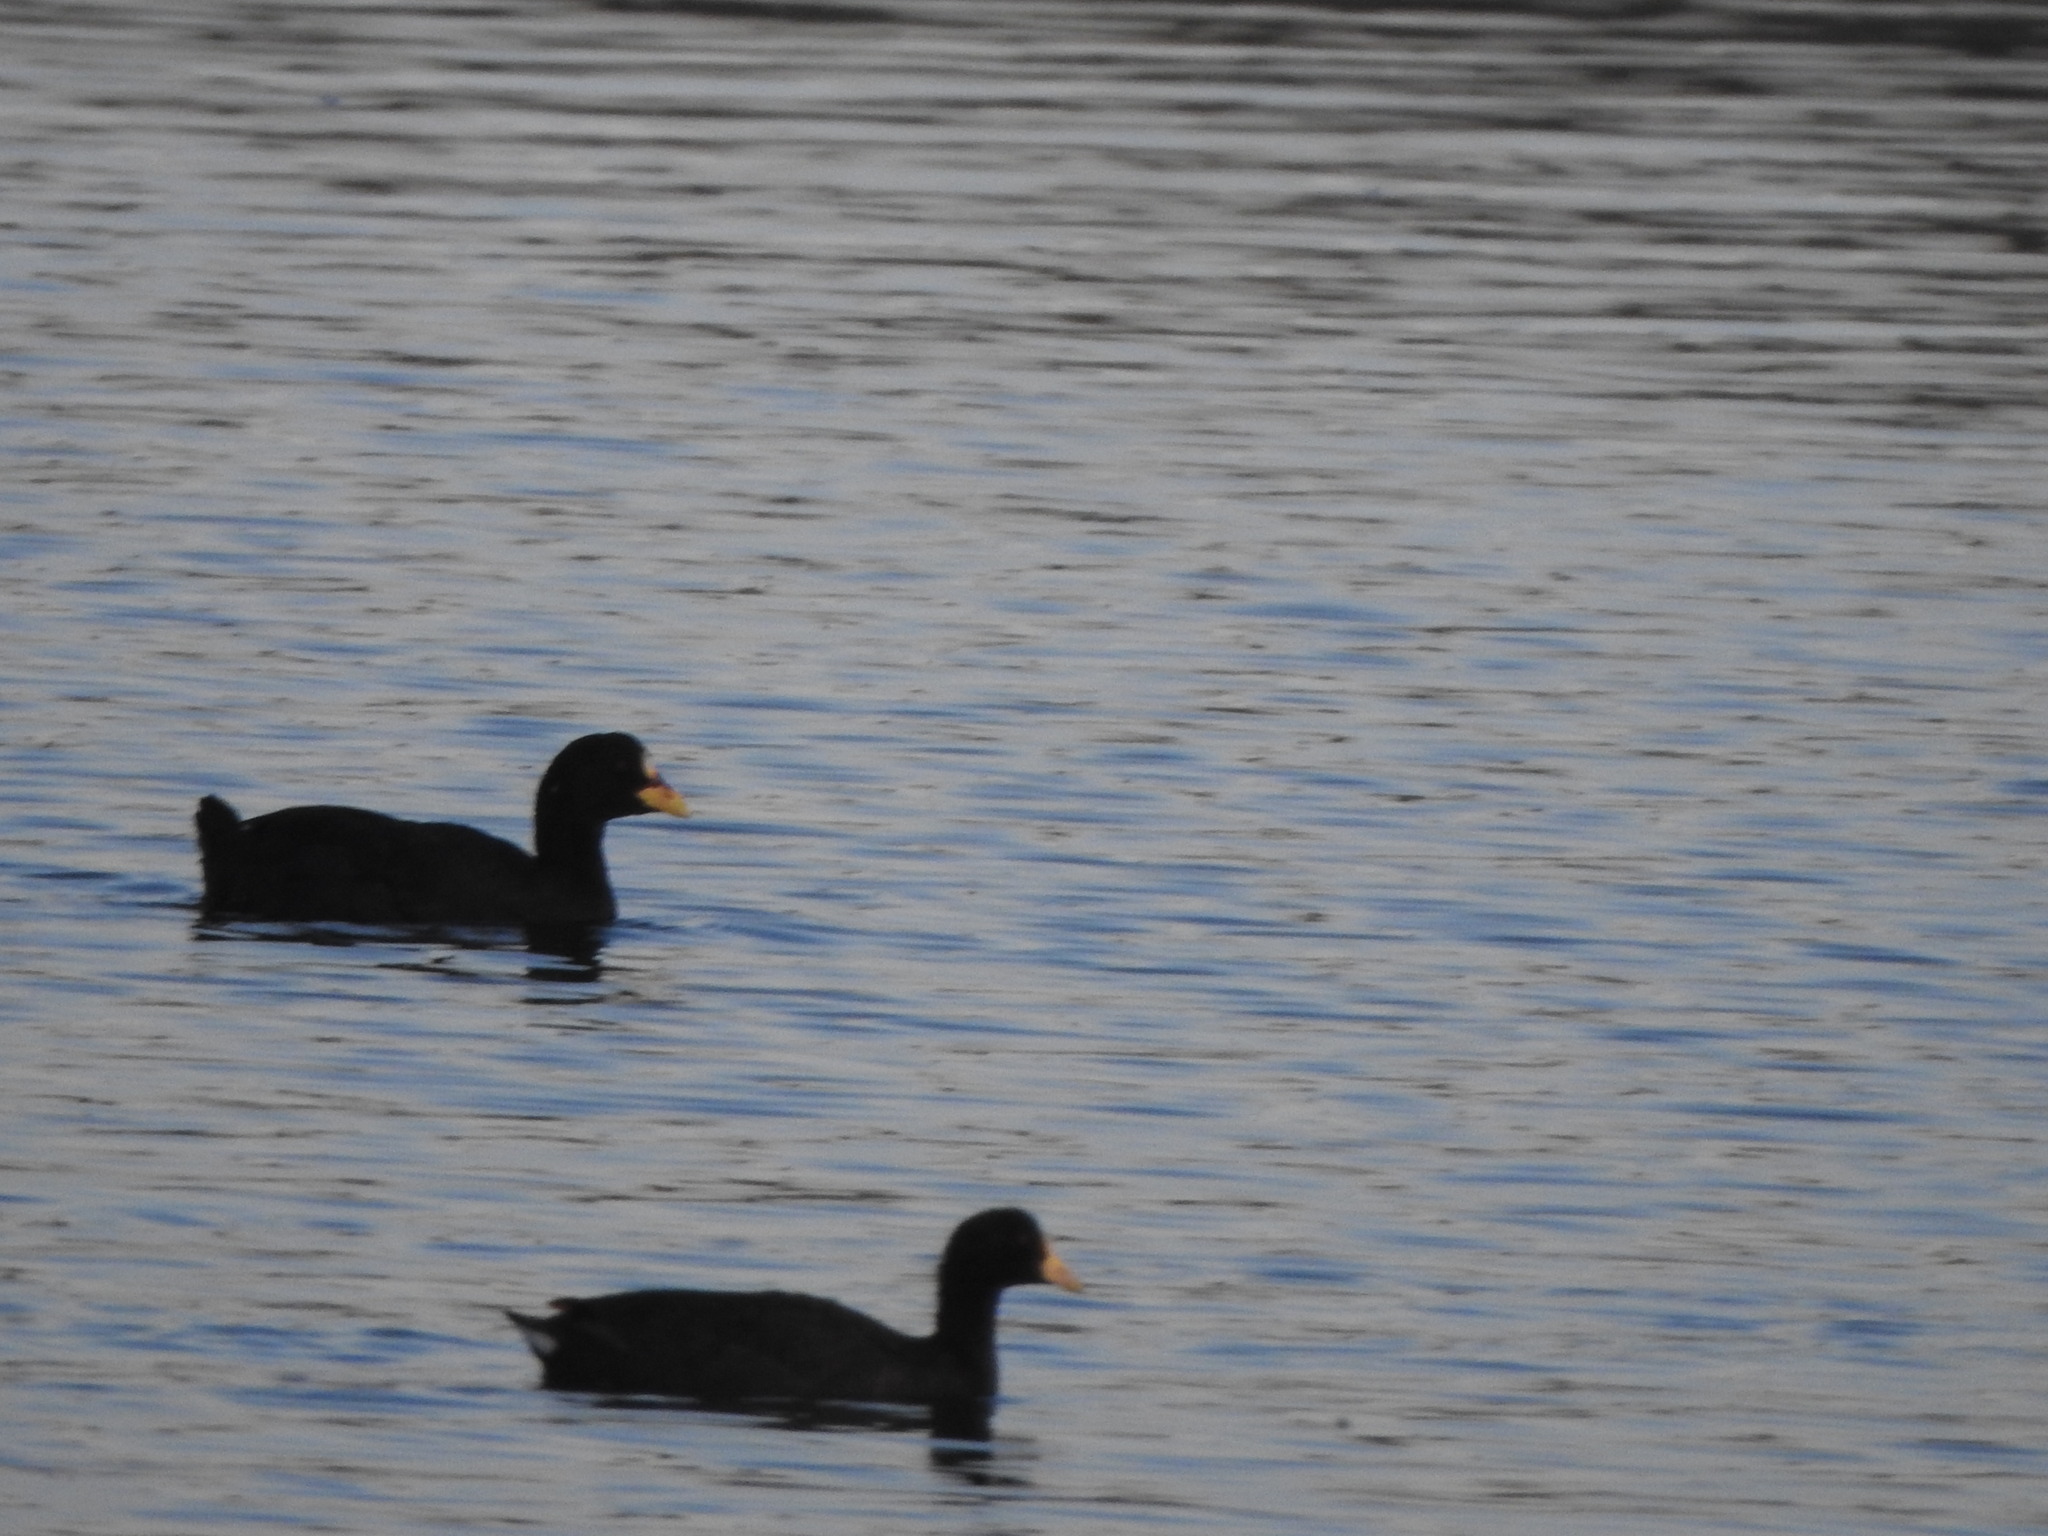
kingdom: Animalia
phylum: Chordata
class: Aves
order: Gruiformes
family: Rallidae
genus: Fulica
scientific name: Fulica armillata
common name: Red-gartered coot
